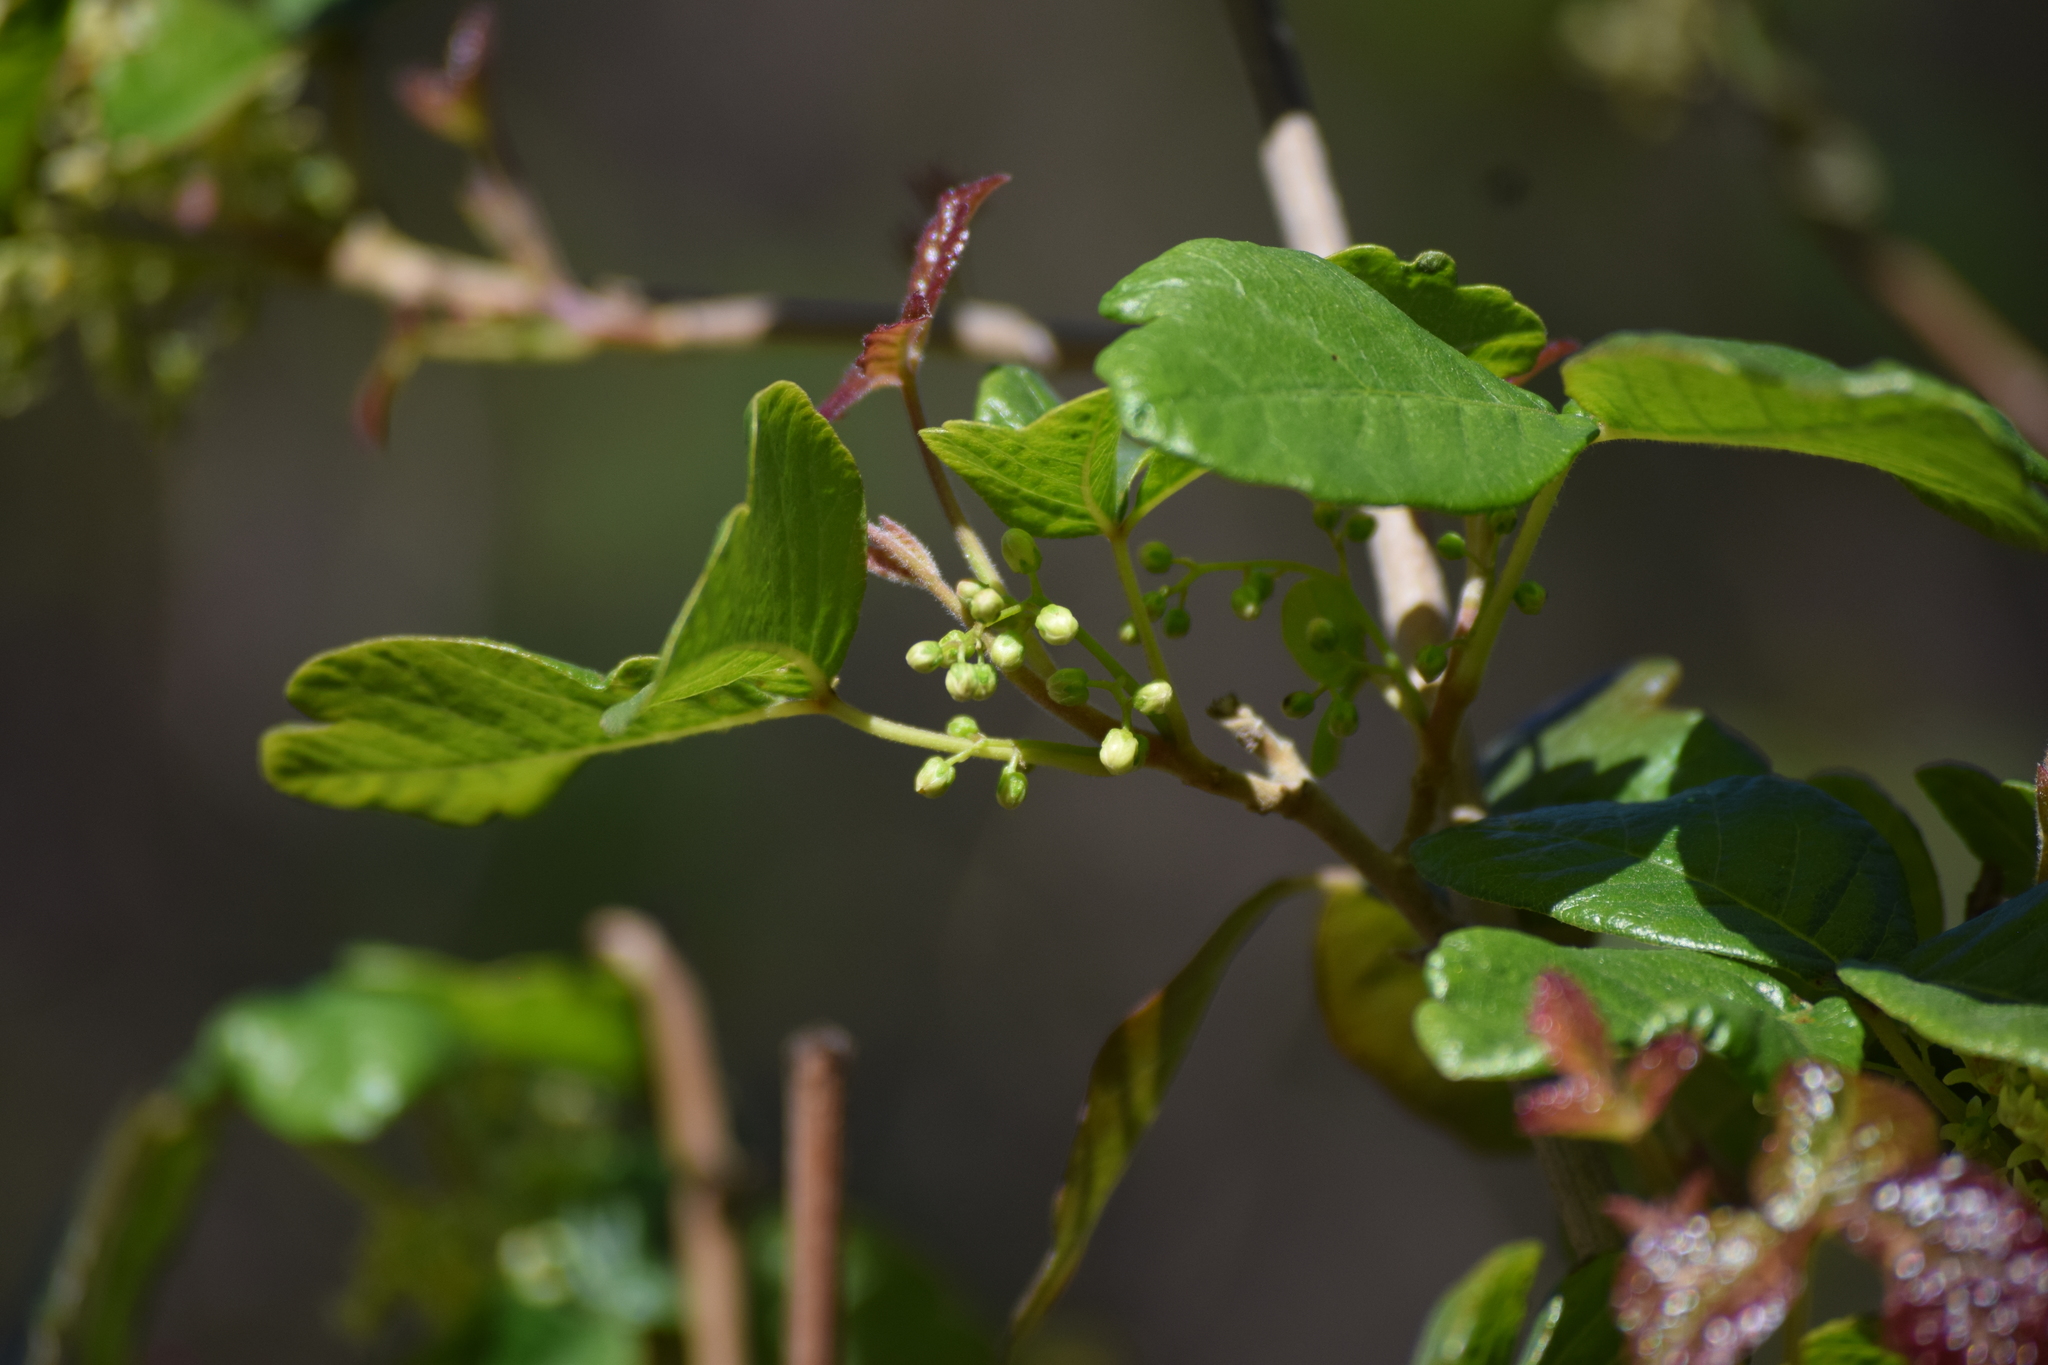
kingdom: Plantae
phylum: Tracheophyta
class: Magnoliopsida
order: Sapindales
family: Anacardiaceae
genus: Toxicodendron
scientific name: Toxicodendron diversilobum
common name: Pacific poison-oak
